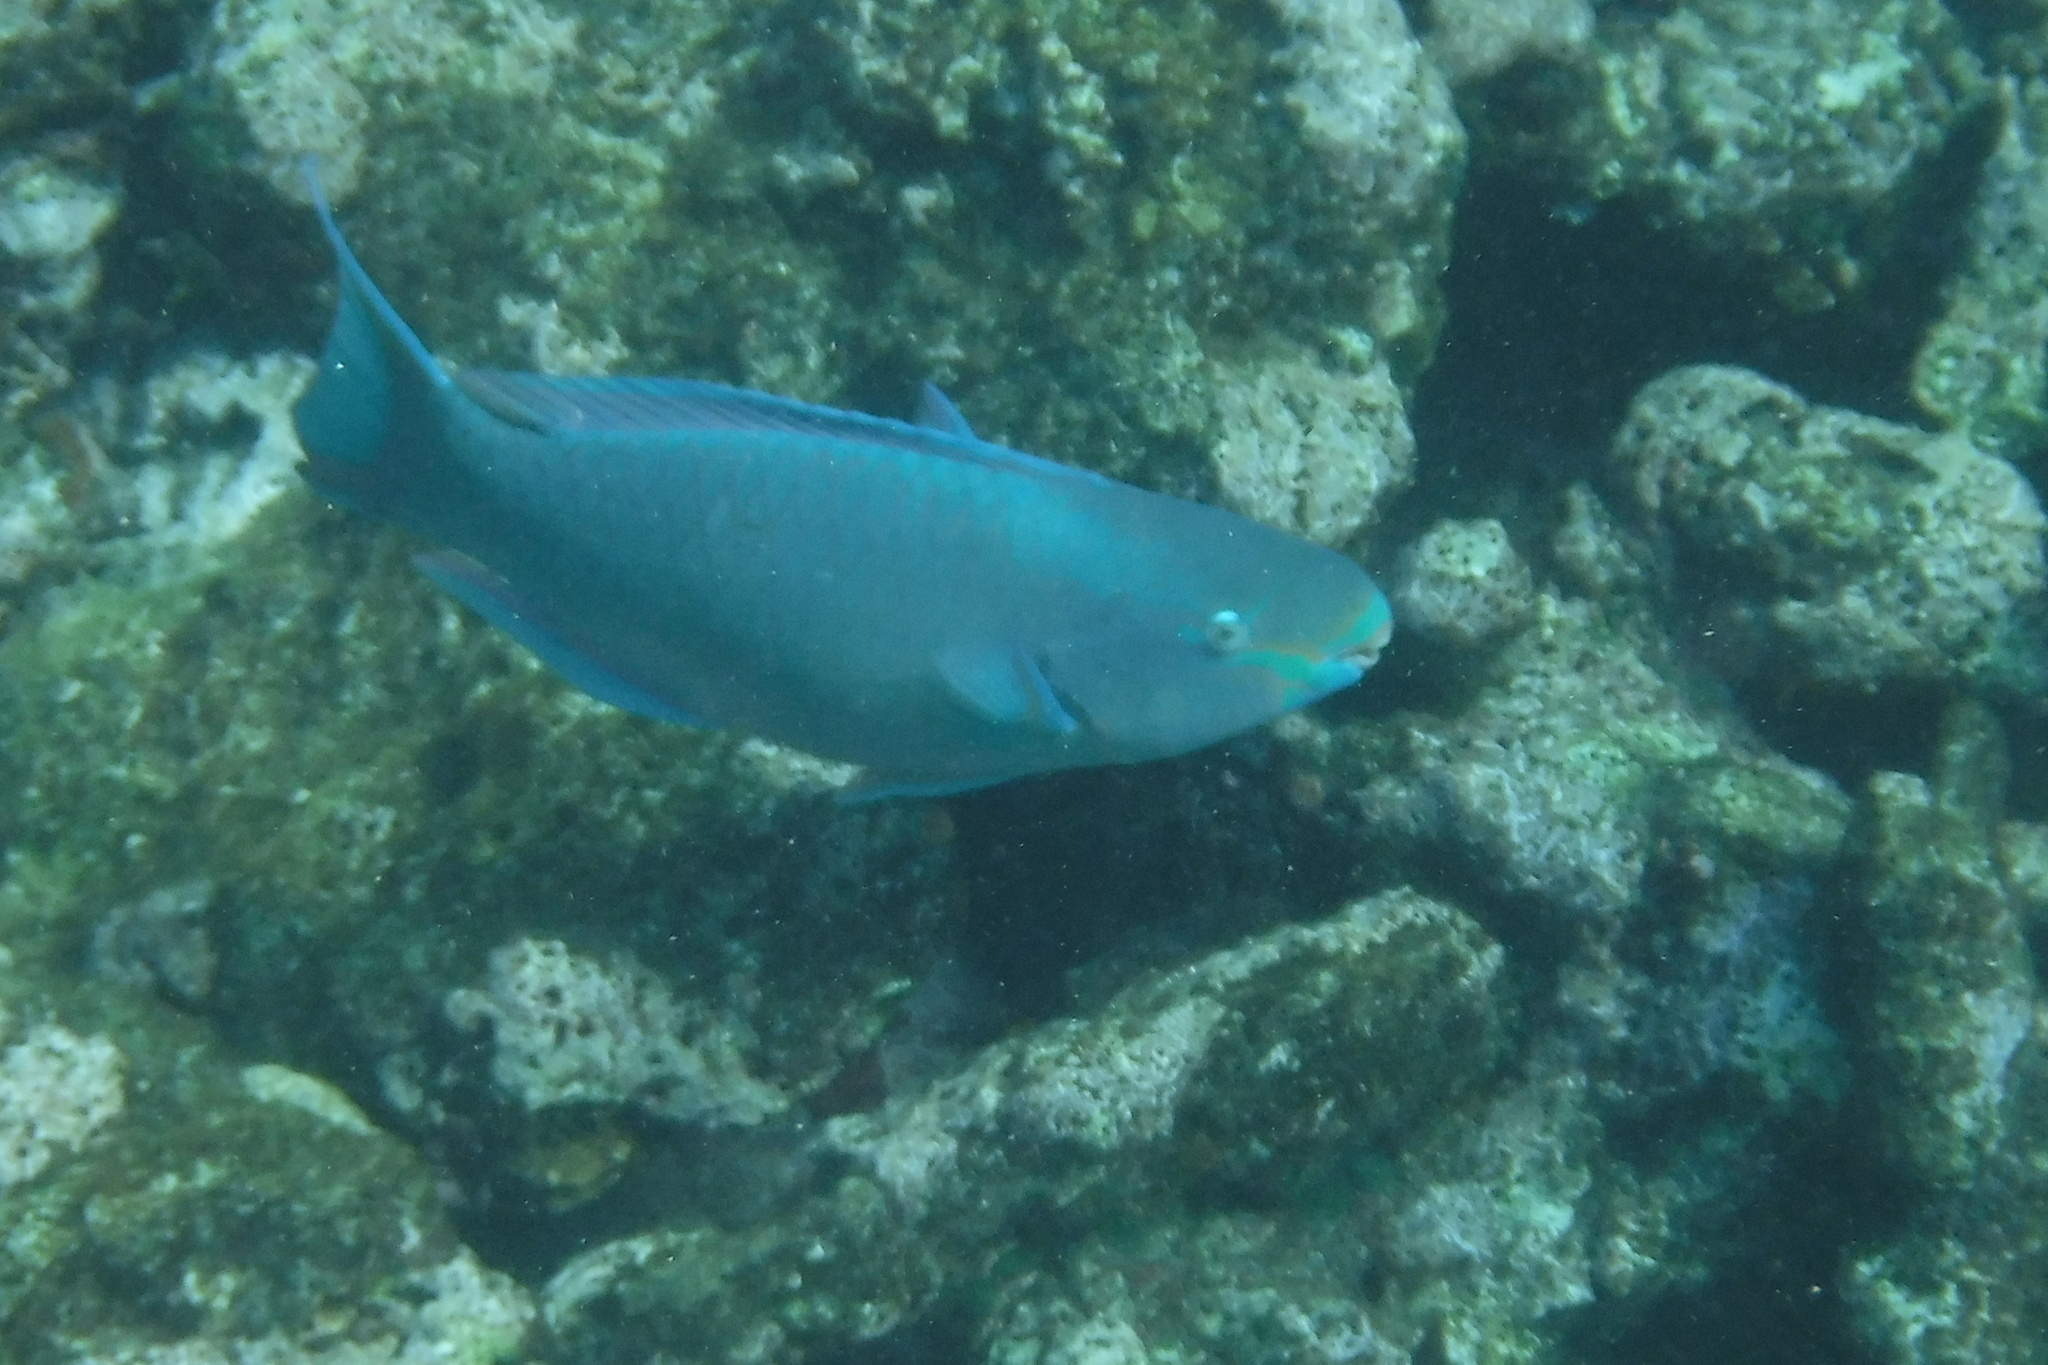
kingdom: Animalia
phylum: Chordata
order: Perciformes
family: Scaridae
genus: Scarus
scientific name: Scarus vetula
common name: Queen parrotfish
